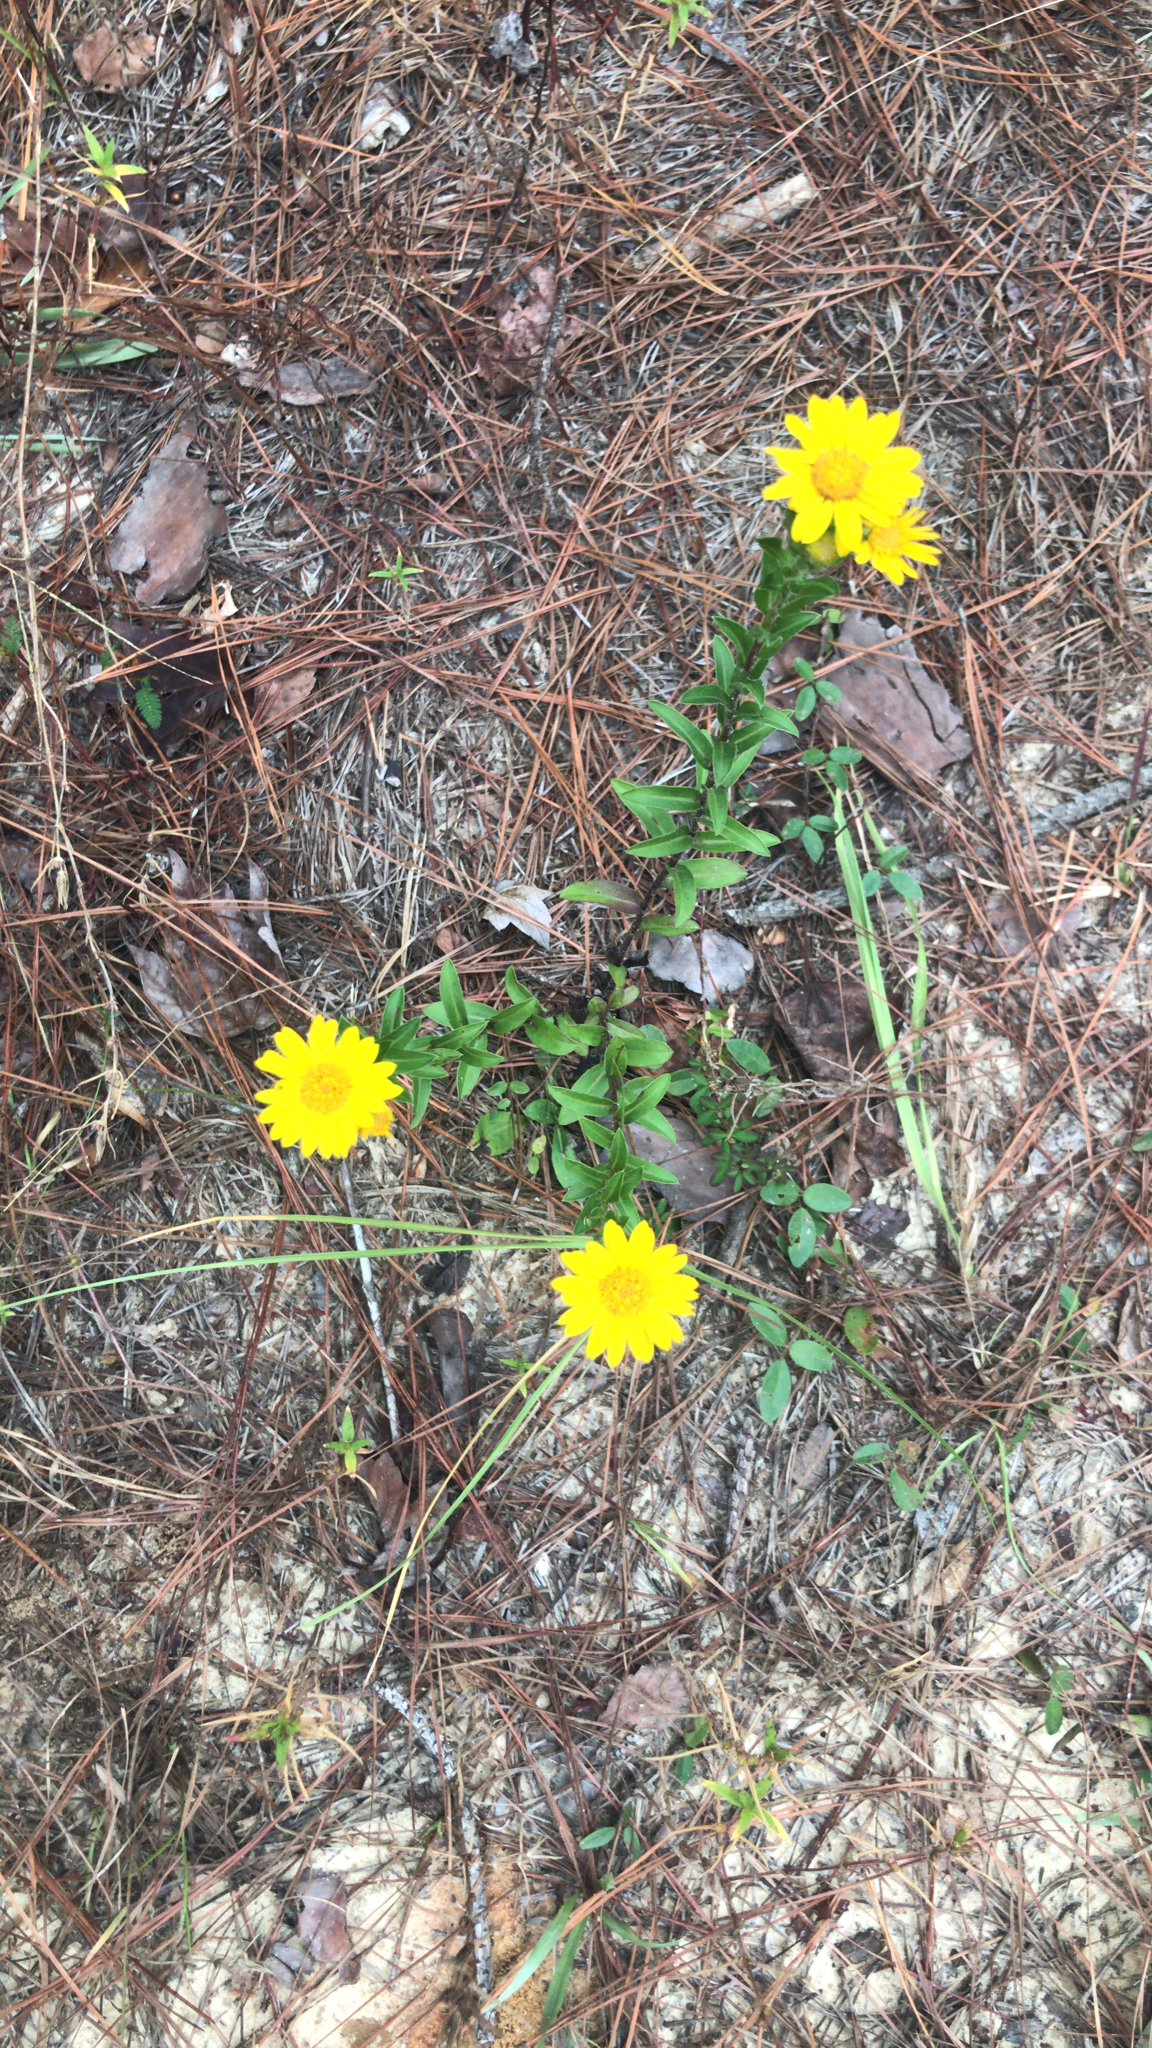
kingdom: Plantae
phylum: Tracheophyta
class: Magnoliopsida
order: Asterales
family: Asteraceae
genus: Chrysopsis
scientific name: Chrysopsis mariana
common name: Maryland golden-aster
